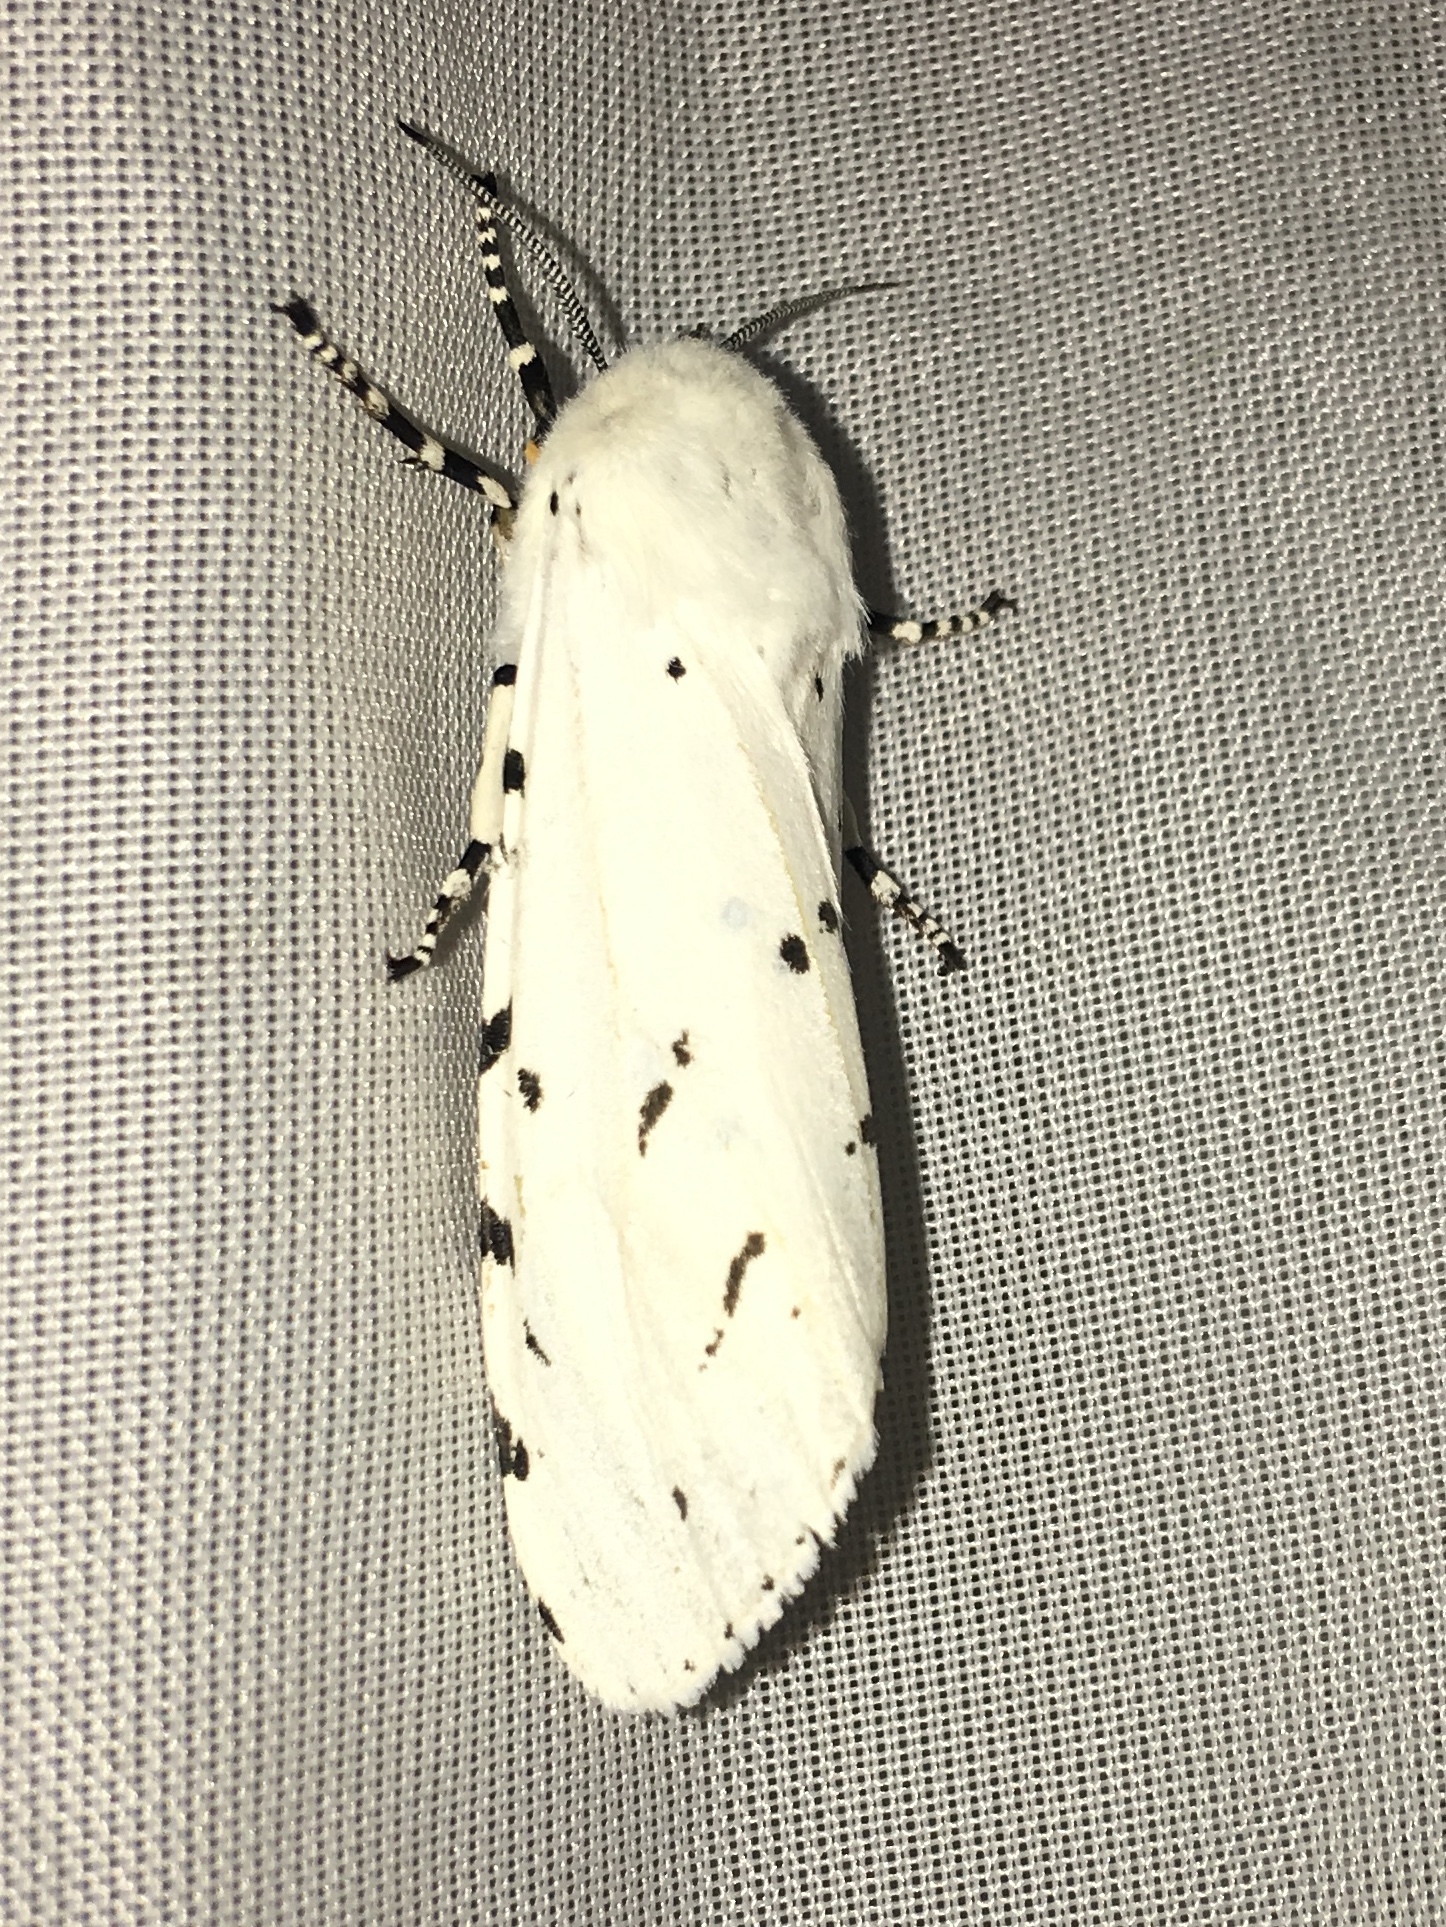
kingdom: Animalia
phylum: Arthropoda
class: Insecta
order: Lepidoptera
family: Erebidae
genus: Estigmene
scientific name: Estigmene acrea
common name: Salt marsh moth
